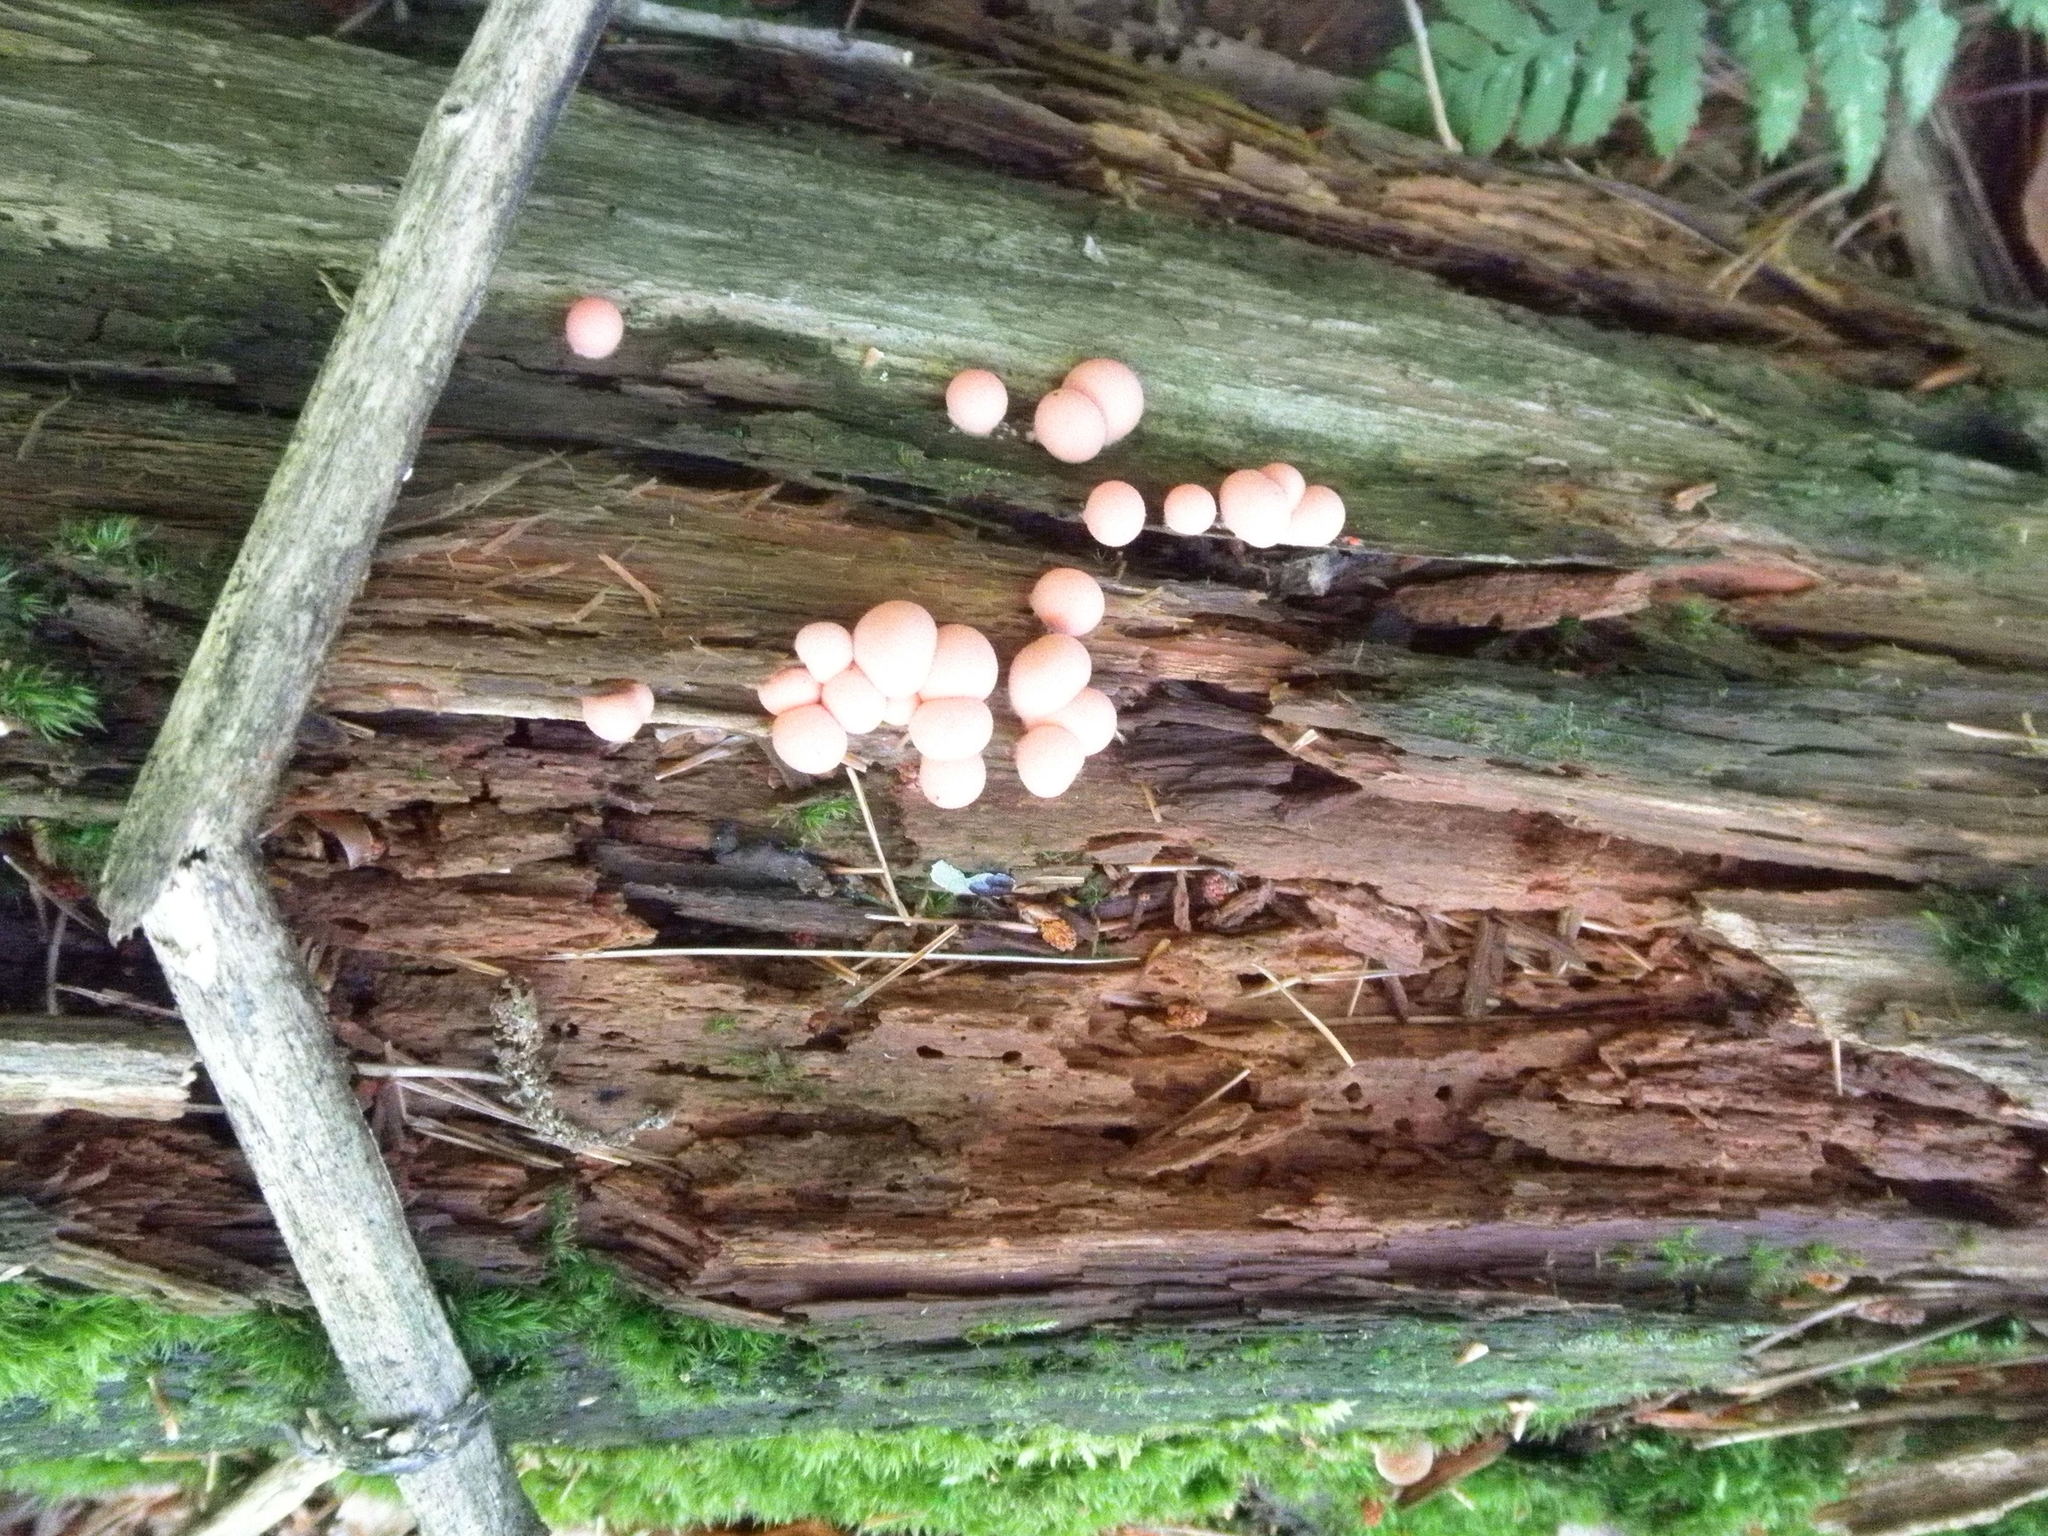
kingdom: Protozoa
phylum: Mycetozoa
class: Myxomycetes
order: Cribrariales
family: Tubiferaceae
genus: Lycogala
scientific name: Lycogala epidendrum
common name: Wolf's milk
